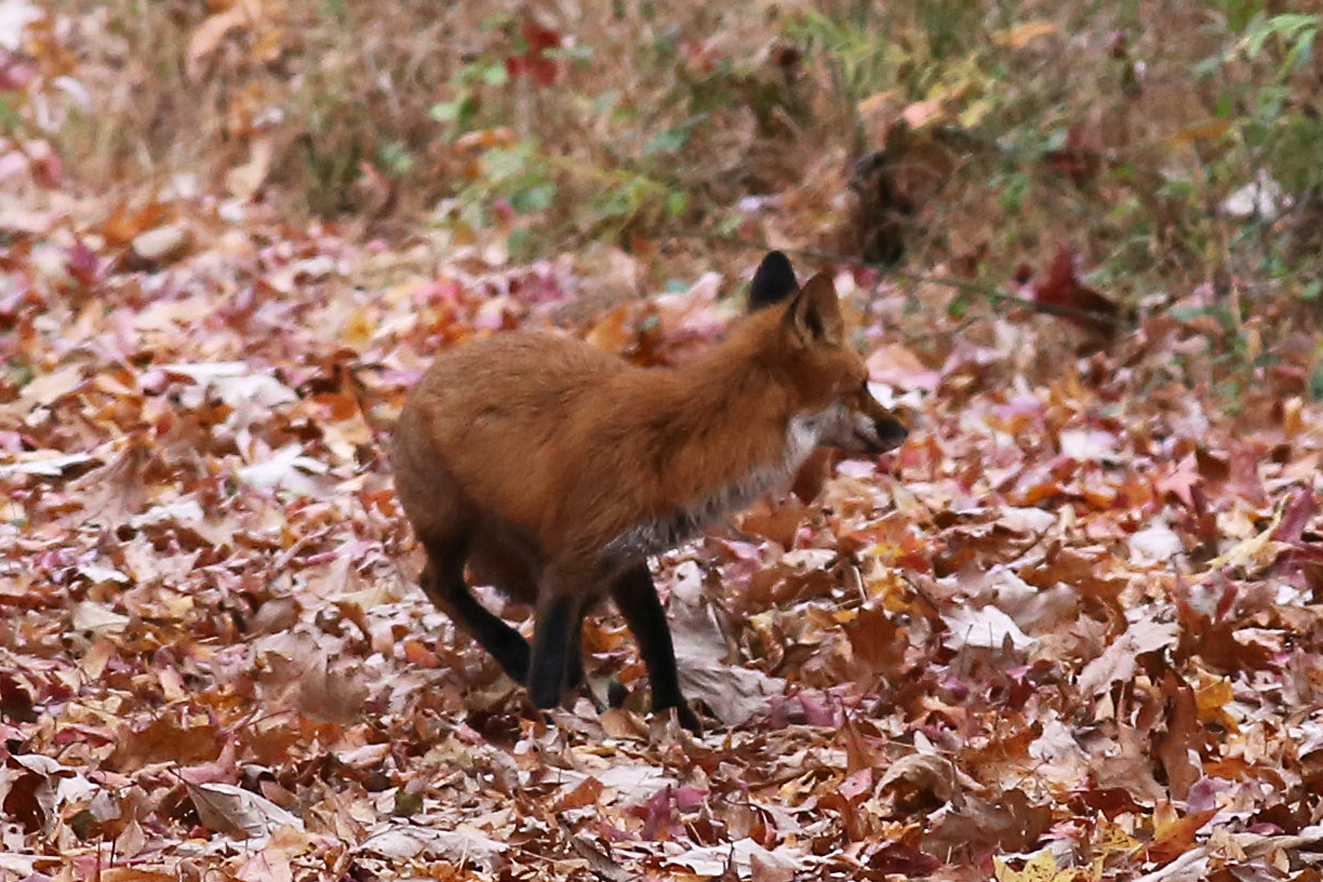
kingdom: Animalia
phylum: Chordata
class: Mammalia
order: Carnivora
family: Canidae
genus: Vulpes
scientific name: Vulpes vulpes
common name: Red fox
